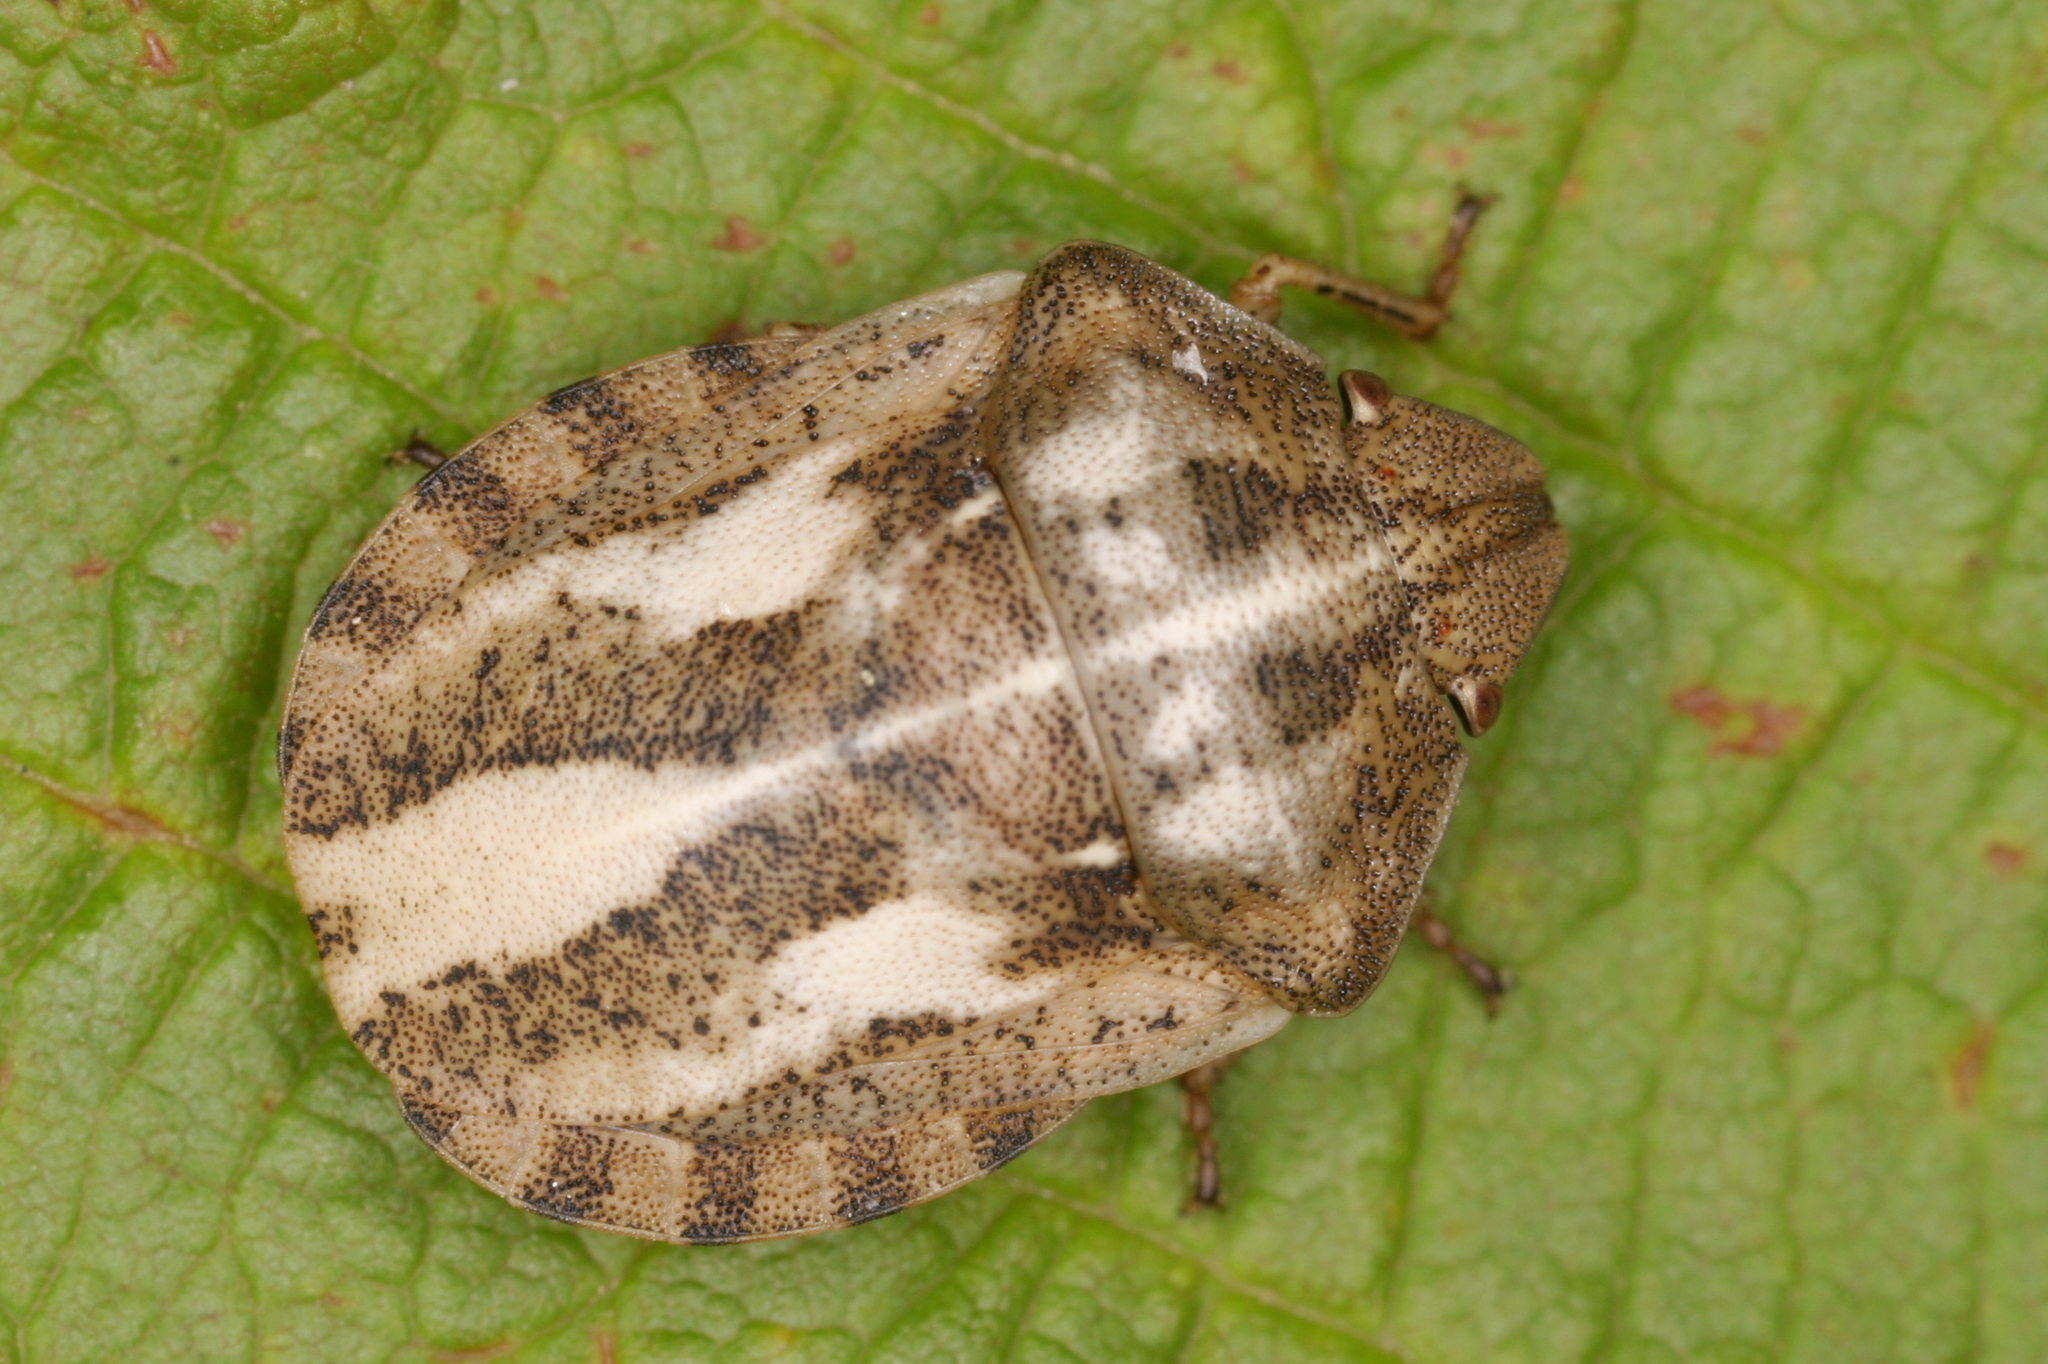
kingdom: Animalia
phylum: Arthropoda
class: Insecta
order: Hemiptera
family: Scutelleridae
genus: Eurygaster
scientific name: Eurygaster testudinaria
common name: Tortoise bug
